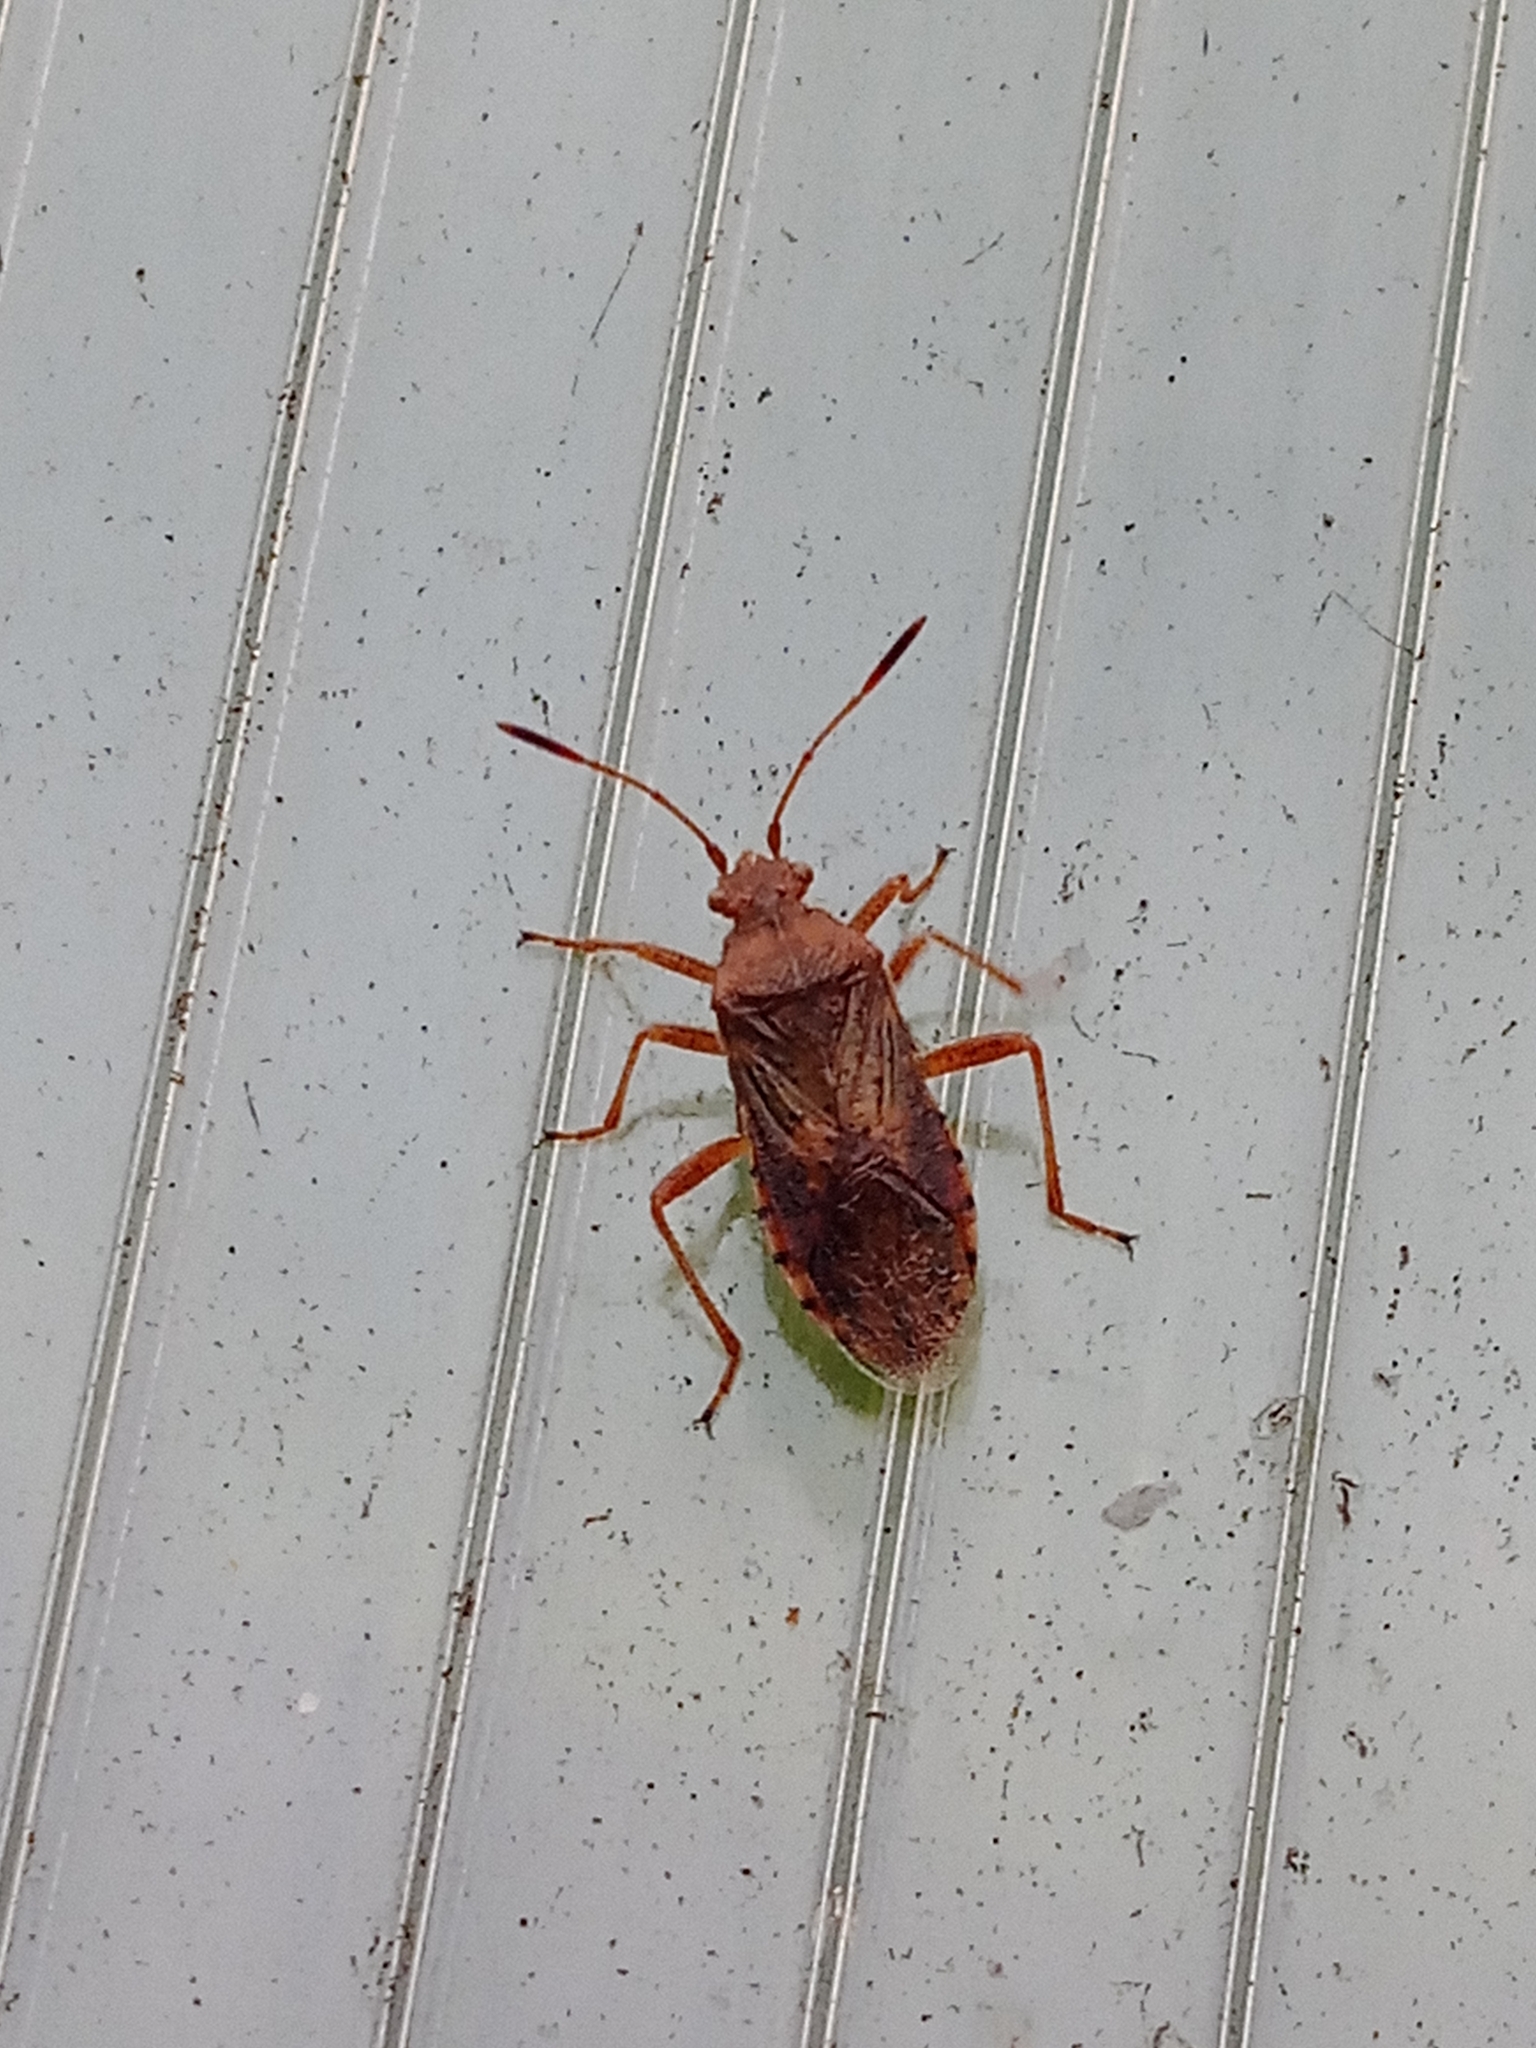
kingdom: Animalia
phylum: Arthropoda
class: Insecta
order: Hemiptera
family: Rhopalidae
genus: Rhopalus
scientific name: Rhopalus maculatus
